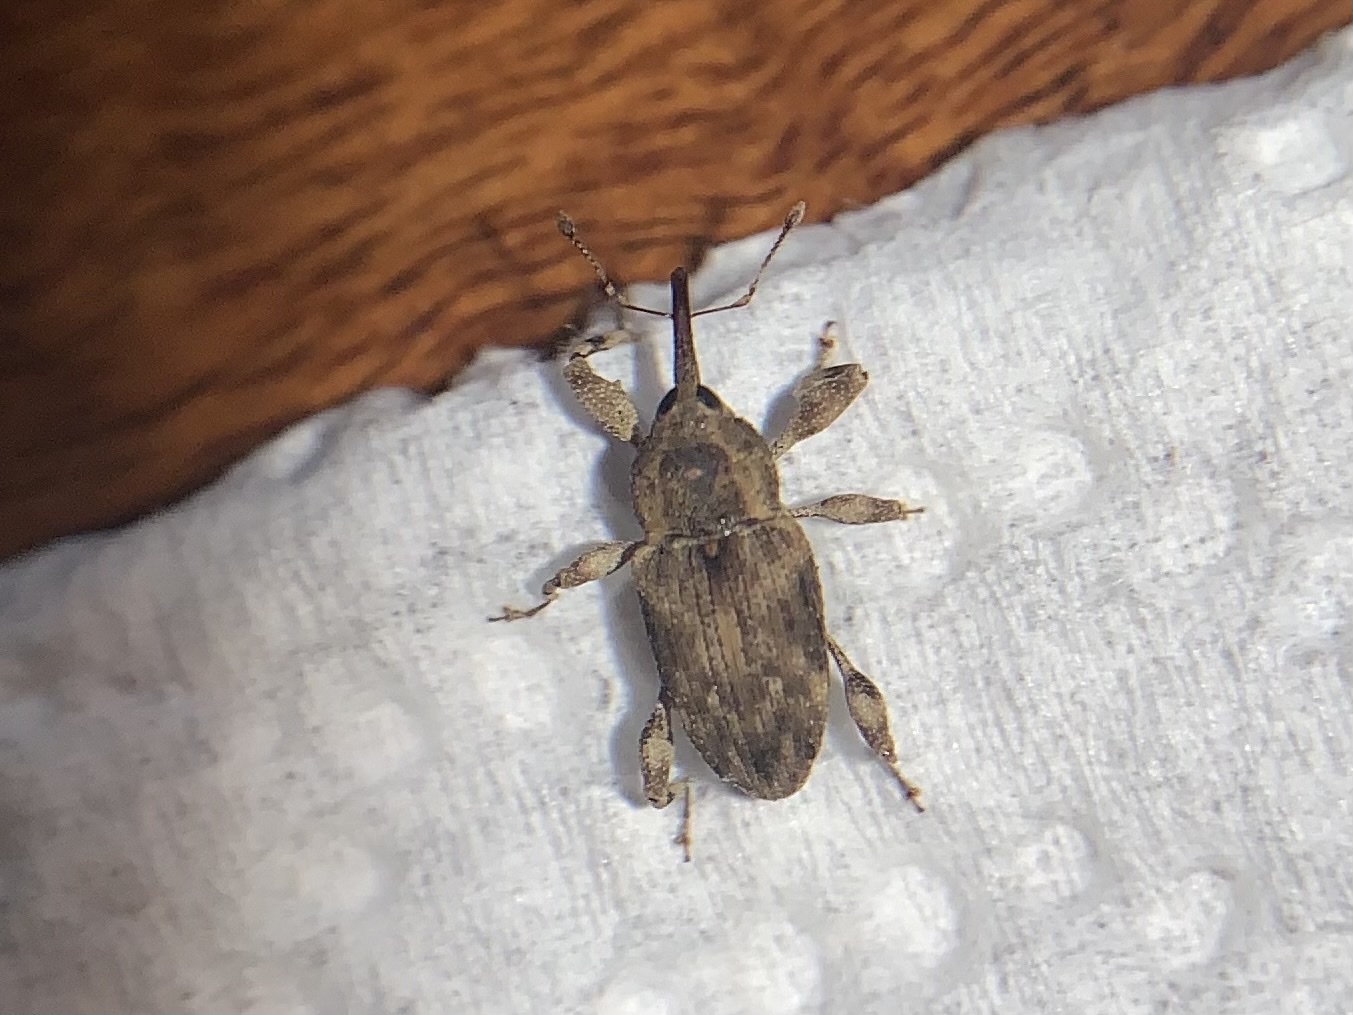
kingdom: Animalia
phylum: Arthropoda
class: Insecta
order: Coleoptera
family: Curculionidae
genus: Acicnemis
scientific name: Acicnemis variegata
